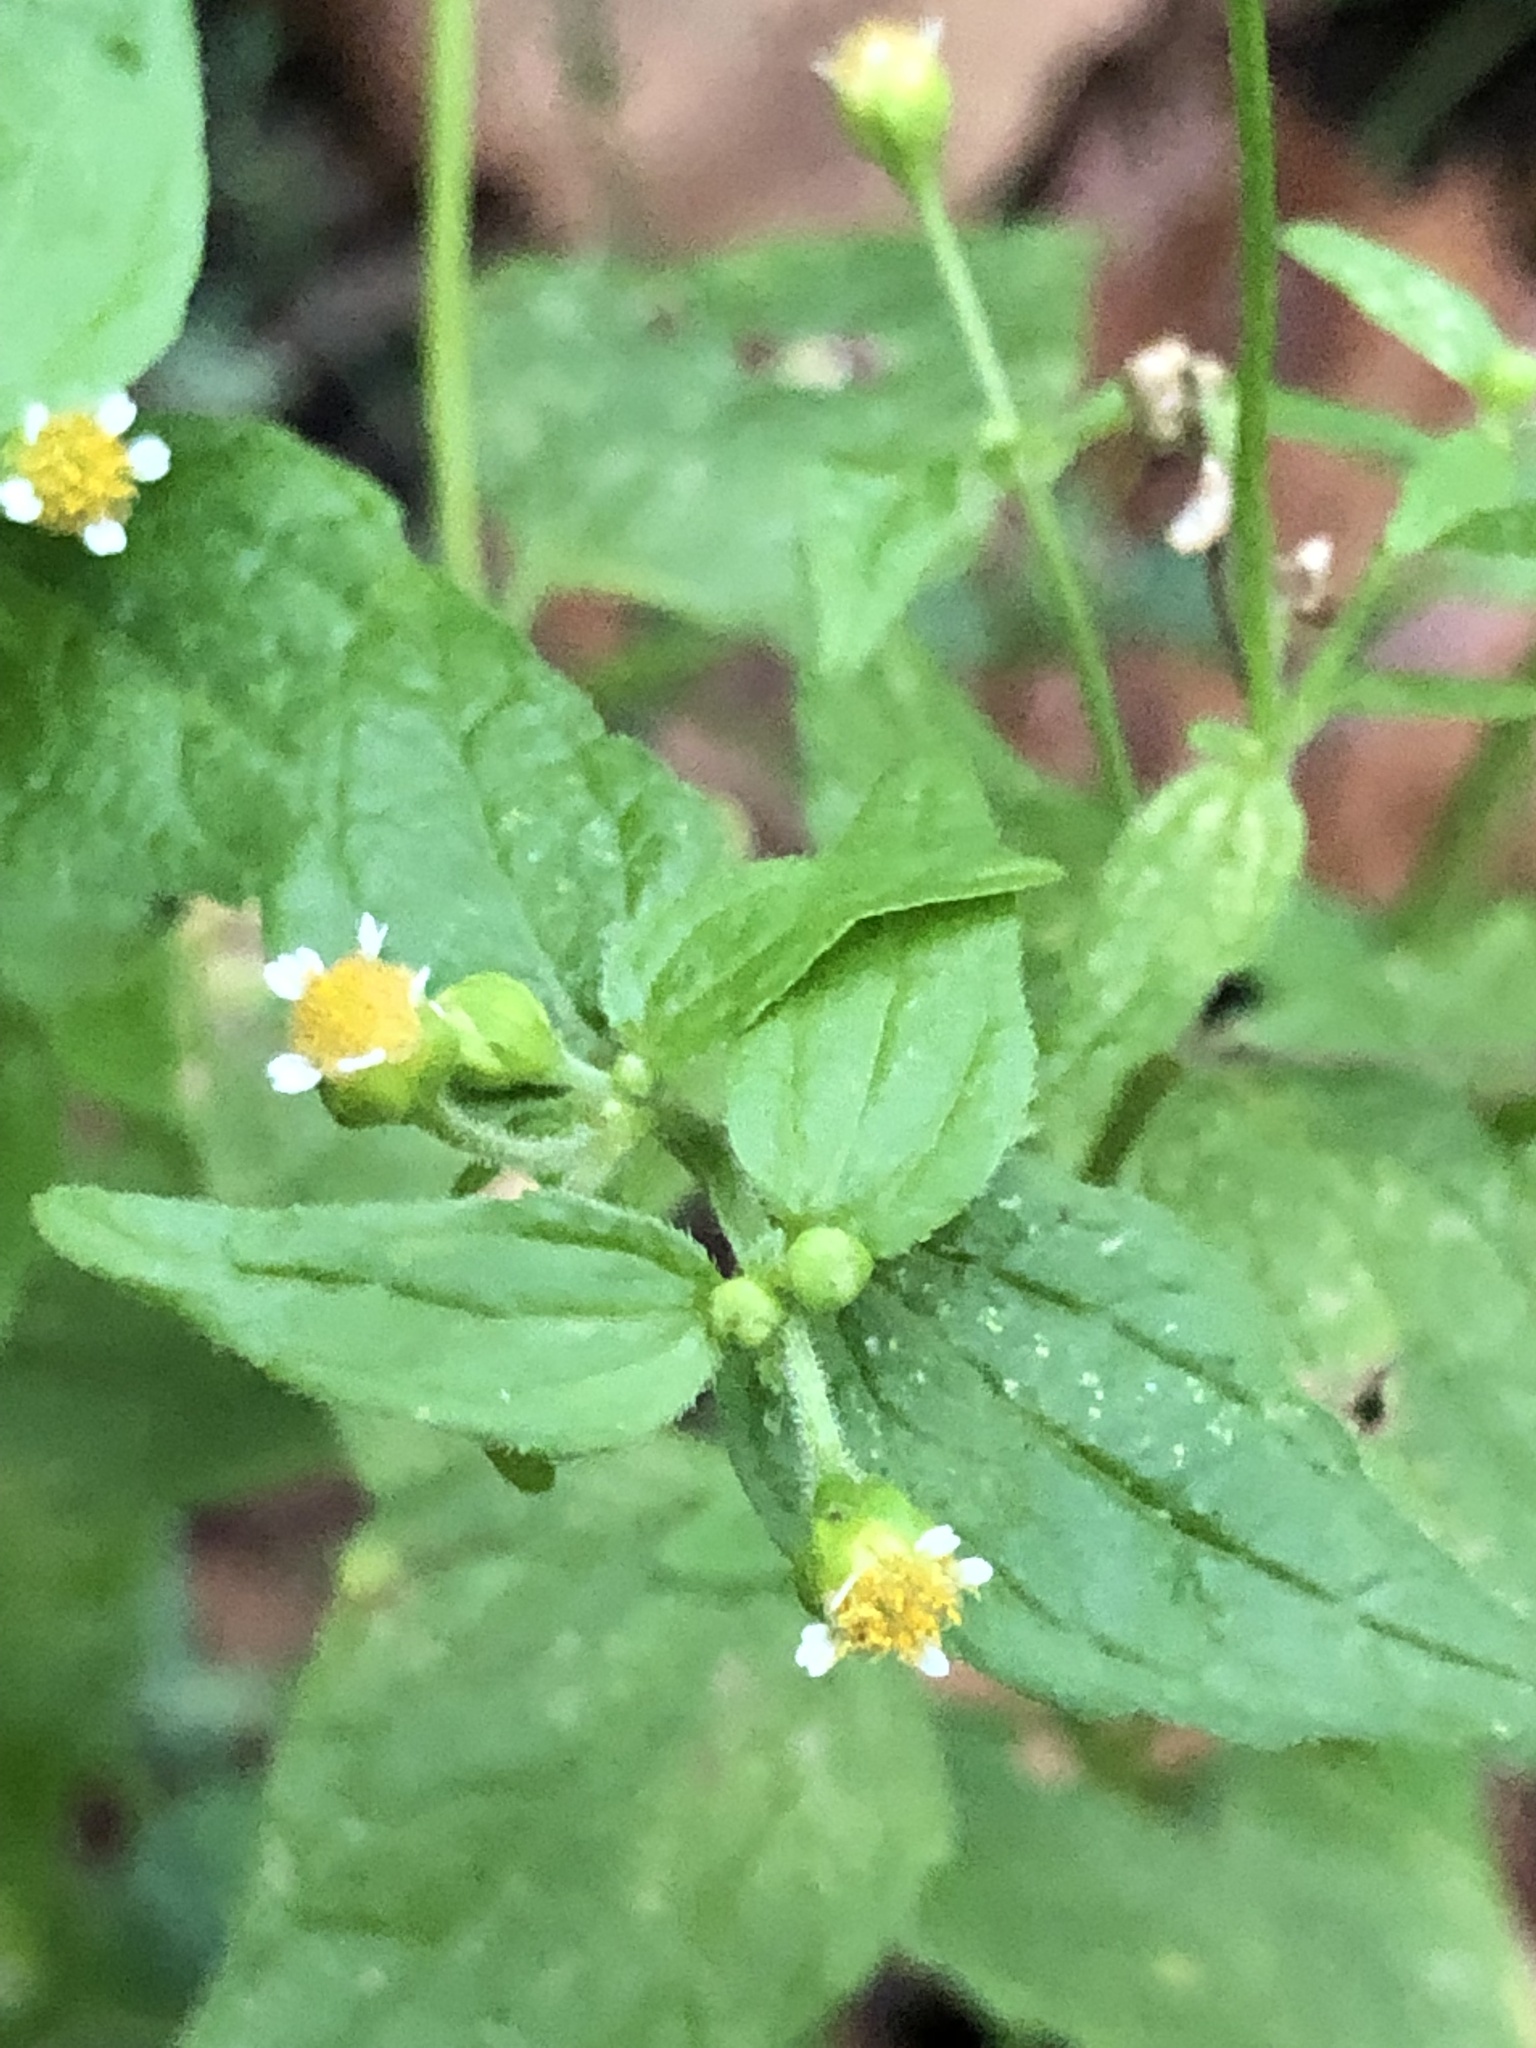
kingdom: Plantae
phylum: Tracheophyta
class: Magnoliopsida
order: Asterales
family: Asteraceae
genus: Galinsoga
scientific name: Galinsoga parviflora
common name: Gallant soldier
